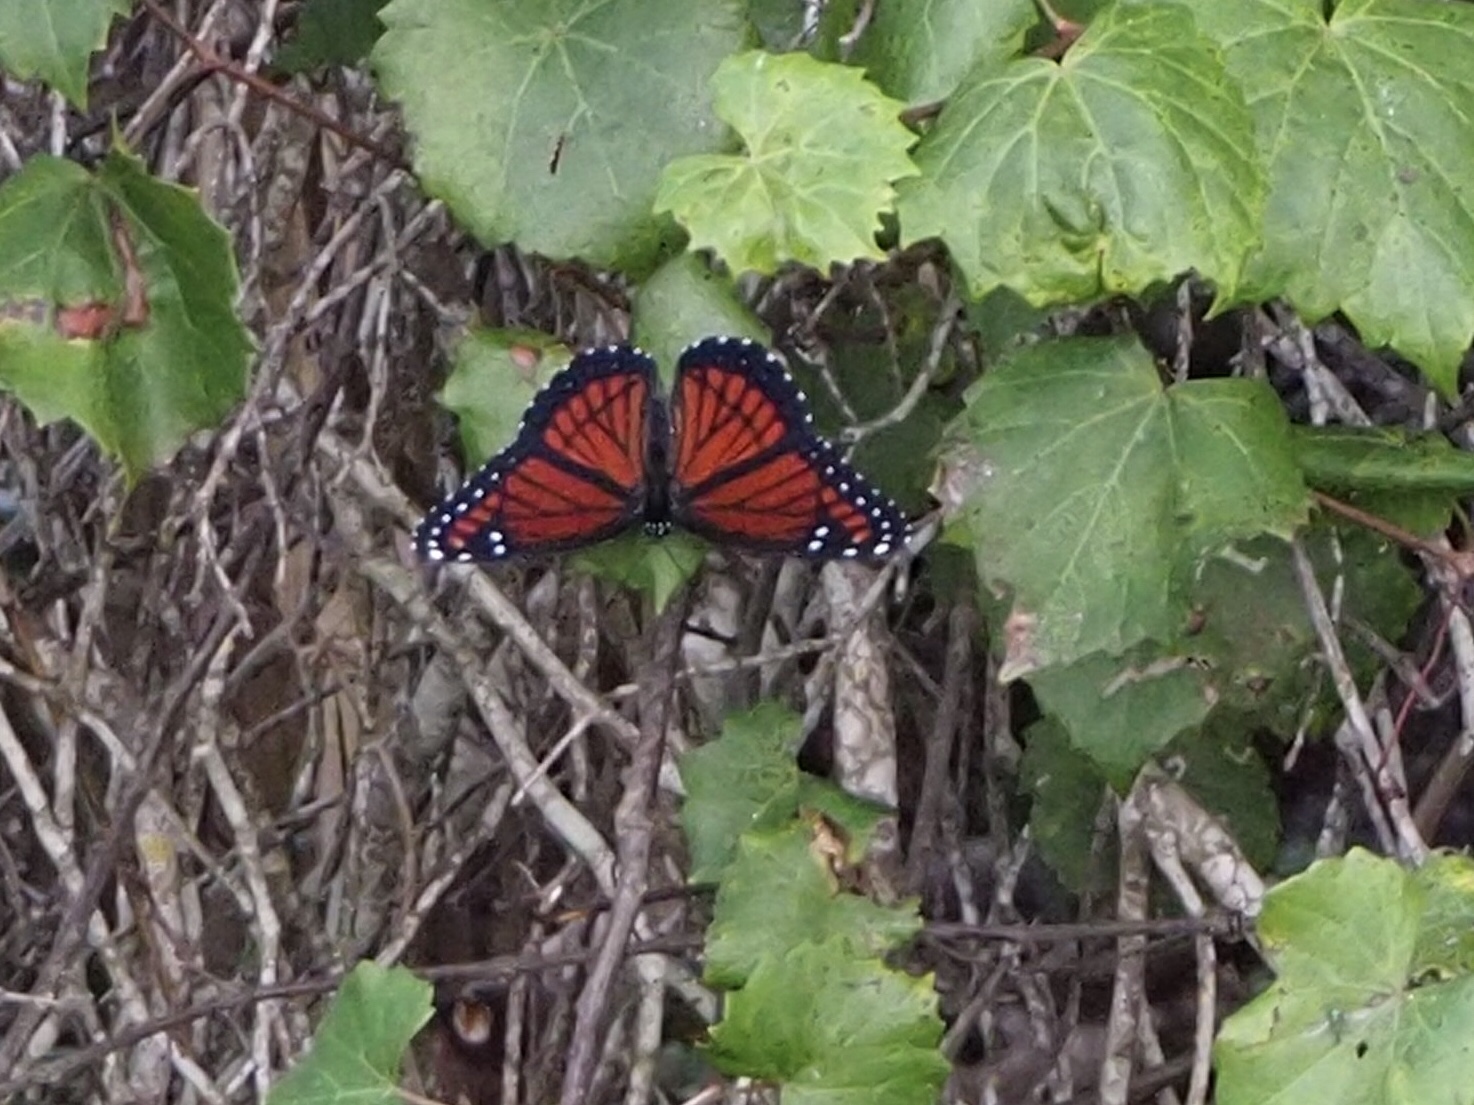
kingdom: Animalia
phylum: Arthropoda
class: Insecta
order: Lepidoptera
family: Nymphalidae
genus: Limenitis
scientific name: Limenitis archippus
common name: Viceroy
